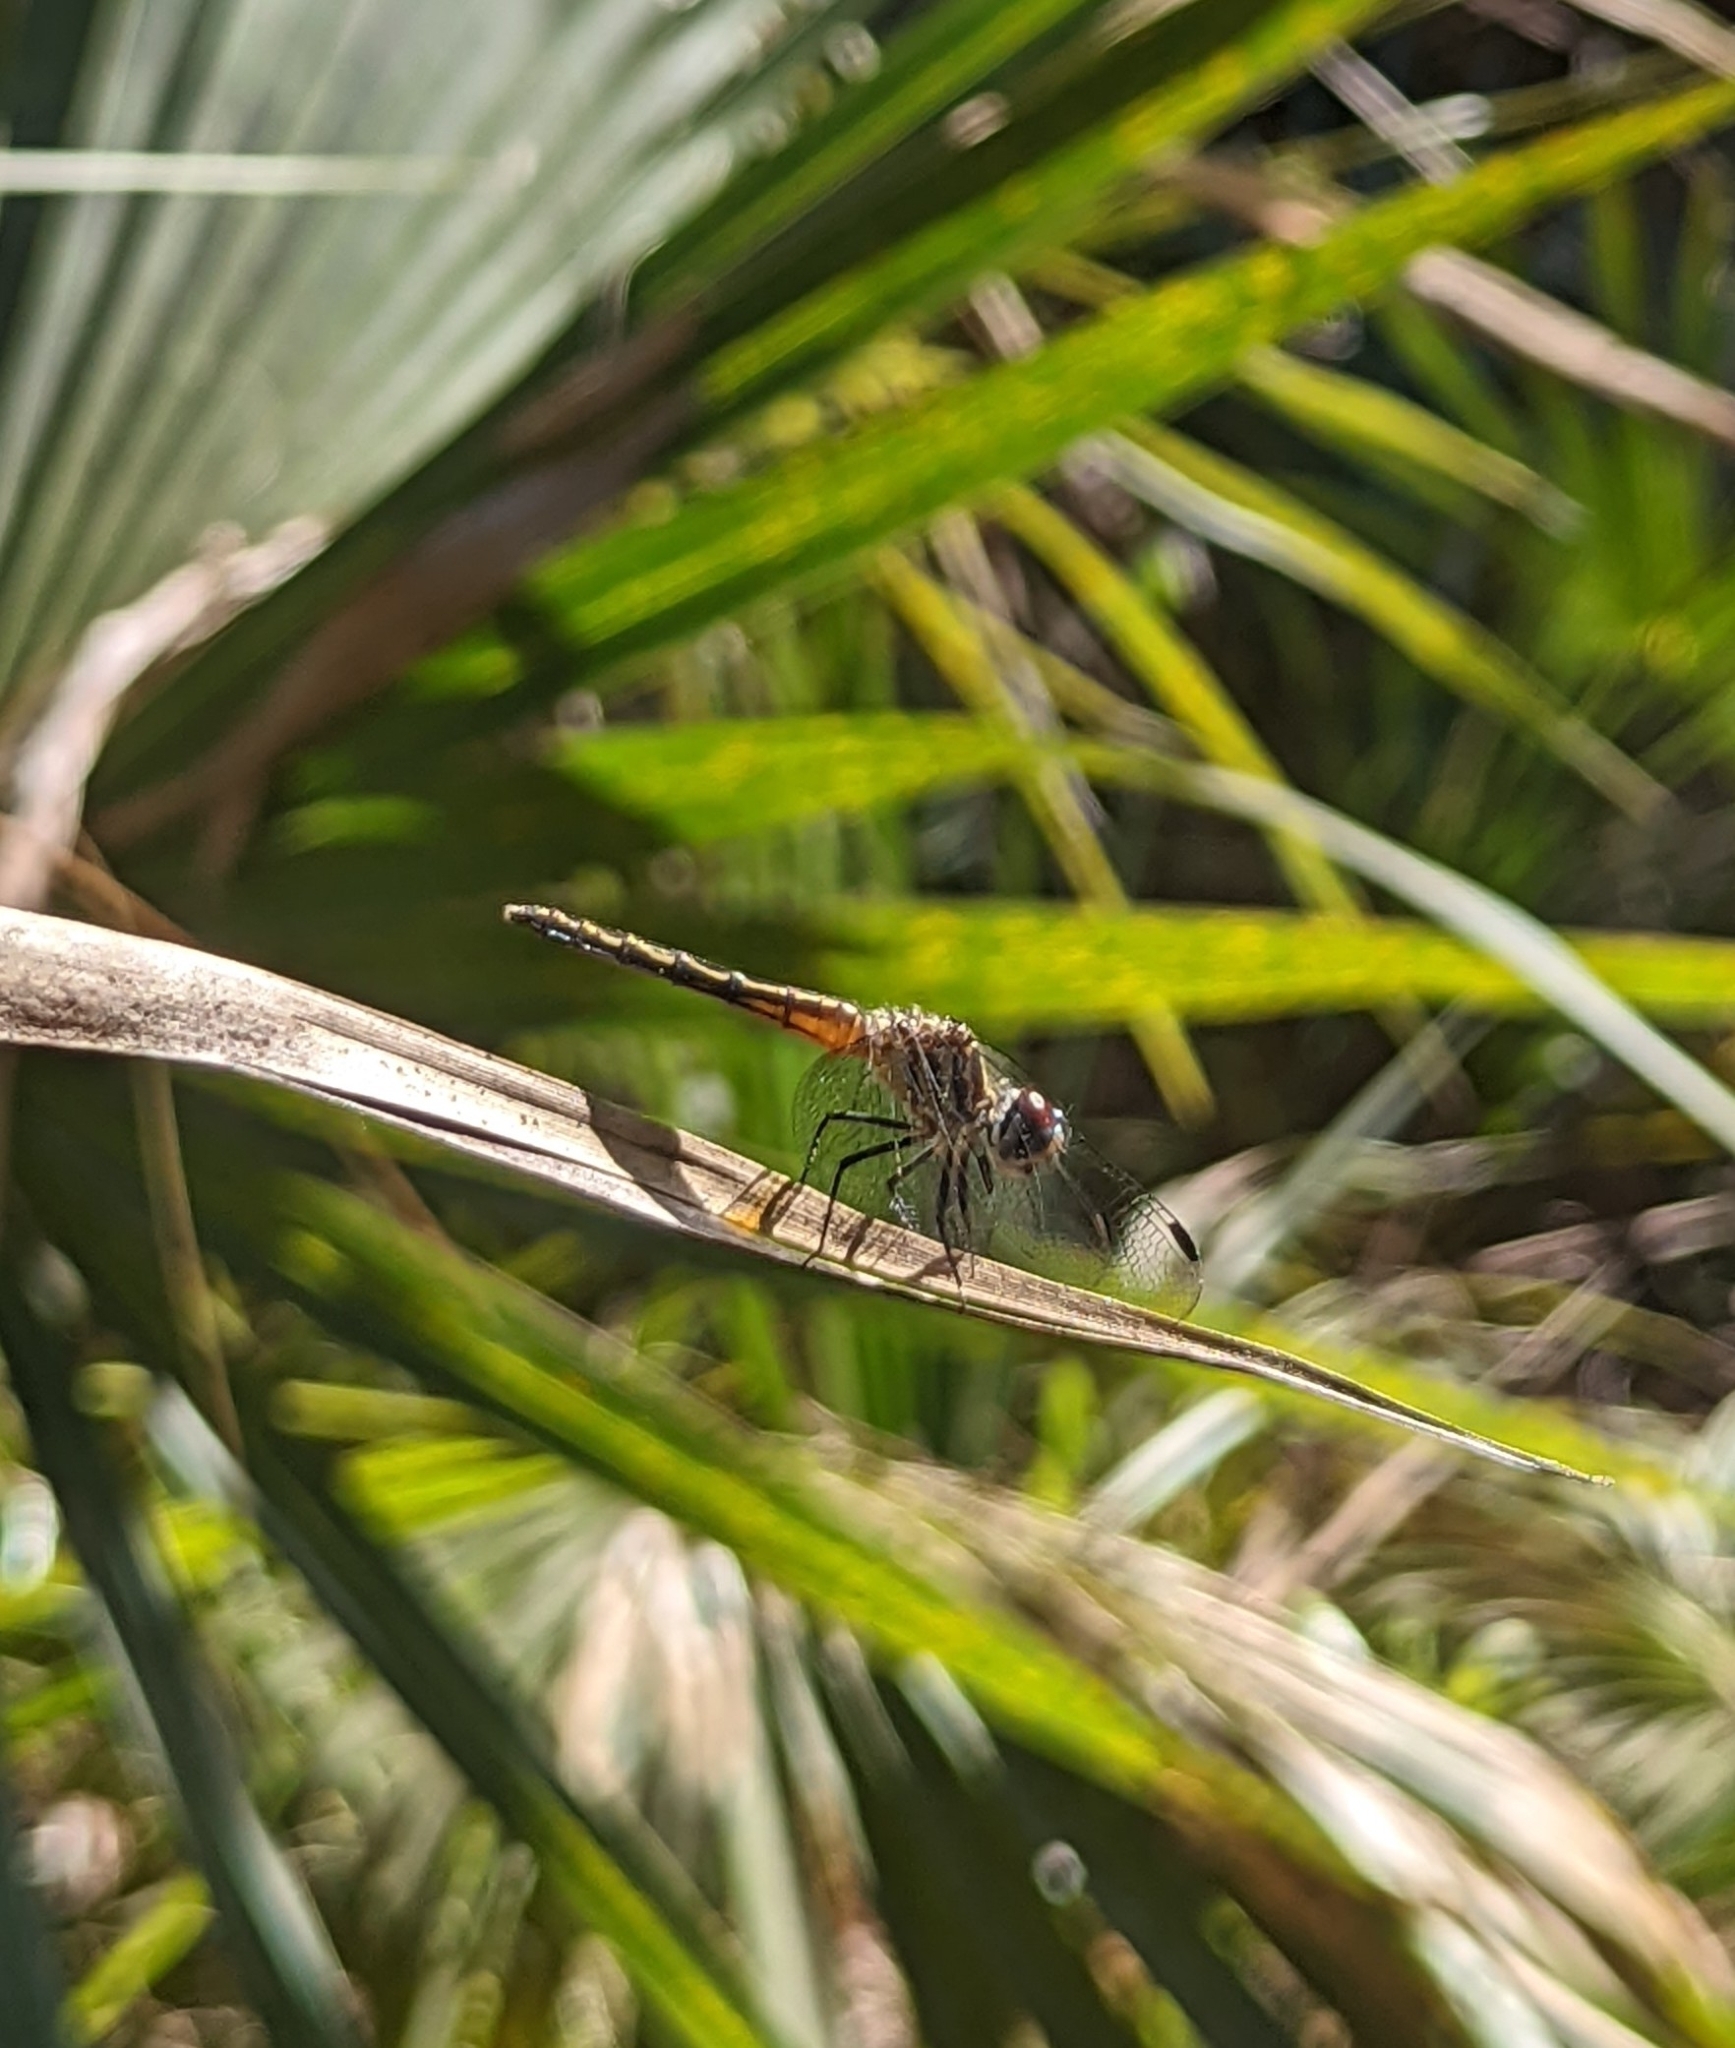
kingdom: Animalia
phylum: Arthropoda
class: Insecta
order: Odonata
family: Libellulidae
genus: Pachydiplax
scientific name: Pachydiplax longipennis
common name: Blue dasher
